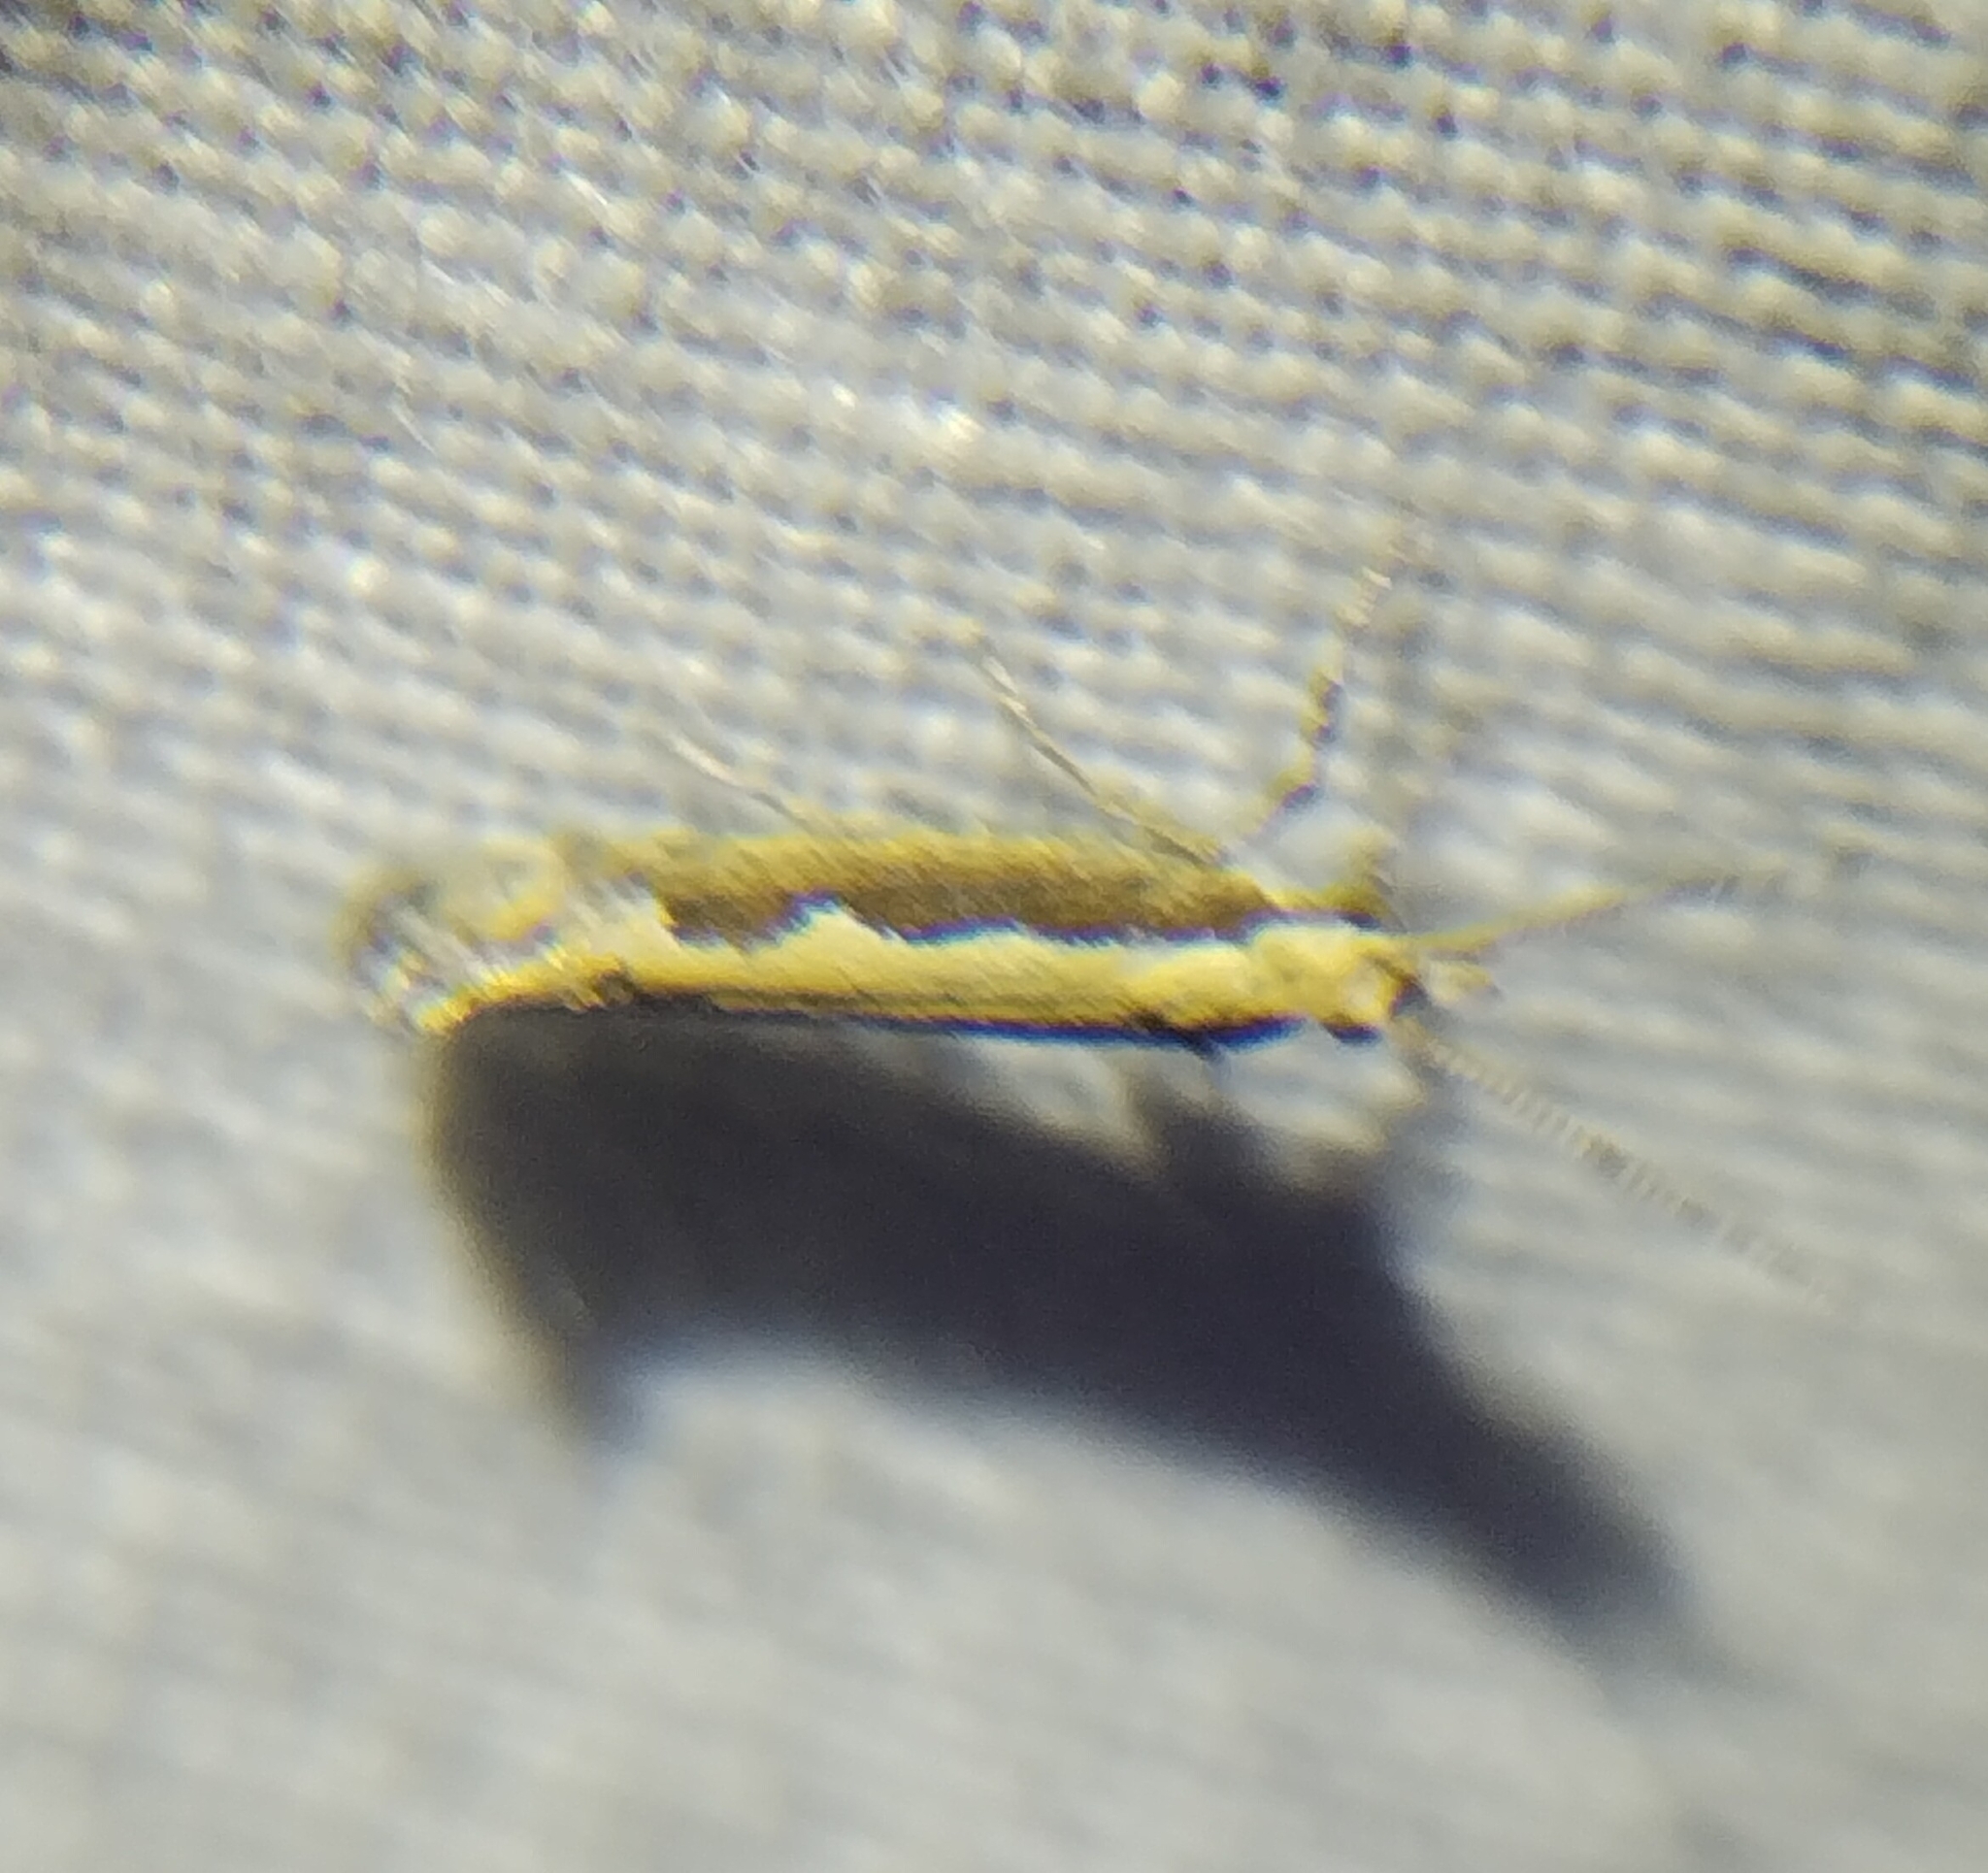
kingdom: Animalia
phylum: Arthropoda
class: Insecta
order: Lepidoptera
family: Plutellidae
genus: Plutella
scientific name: Plutella xylostella
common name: Diamond-back moth
